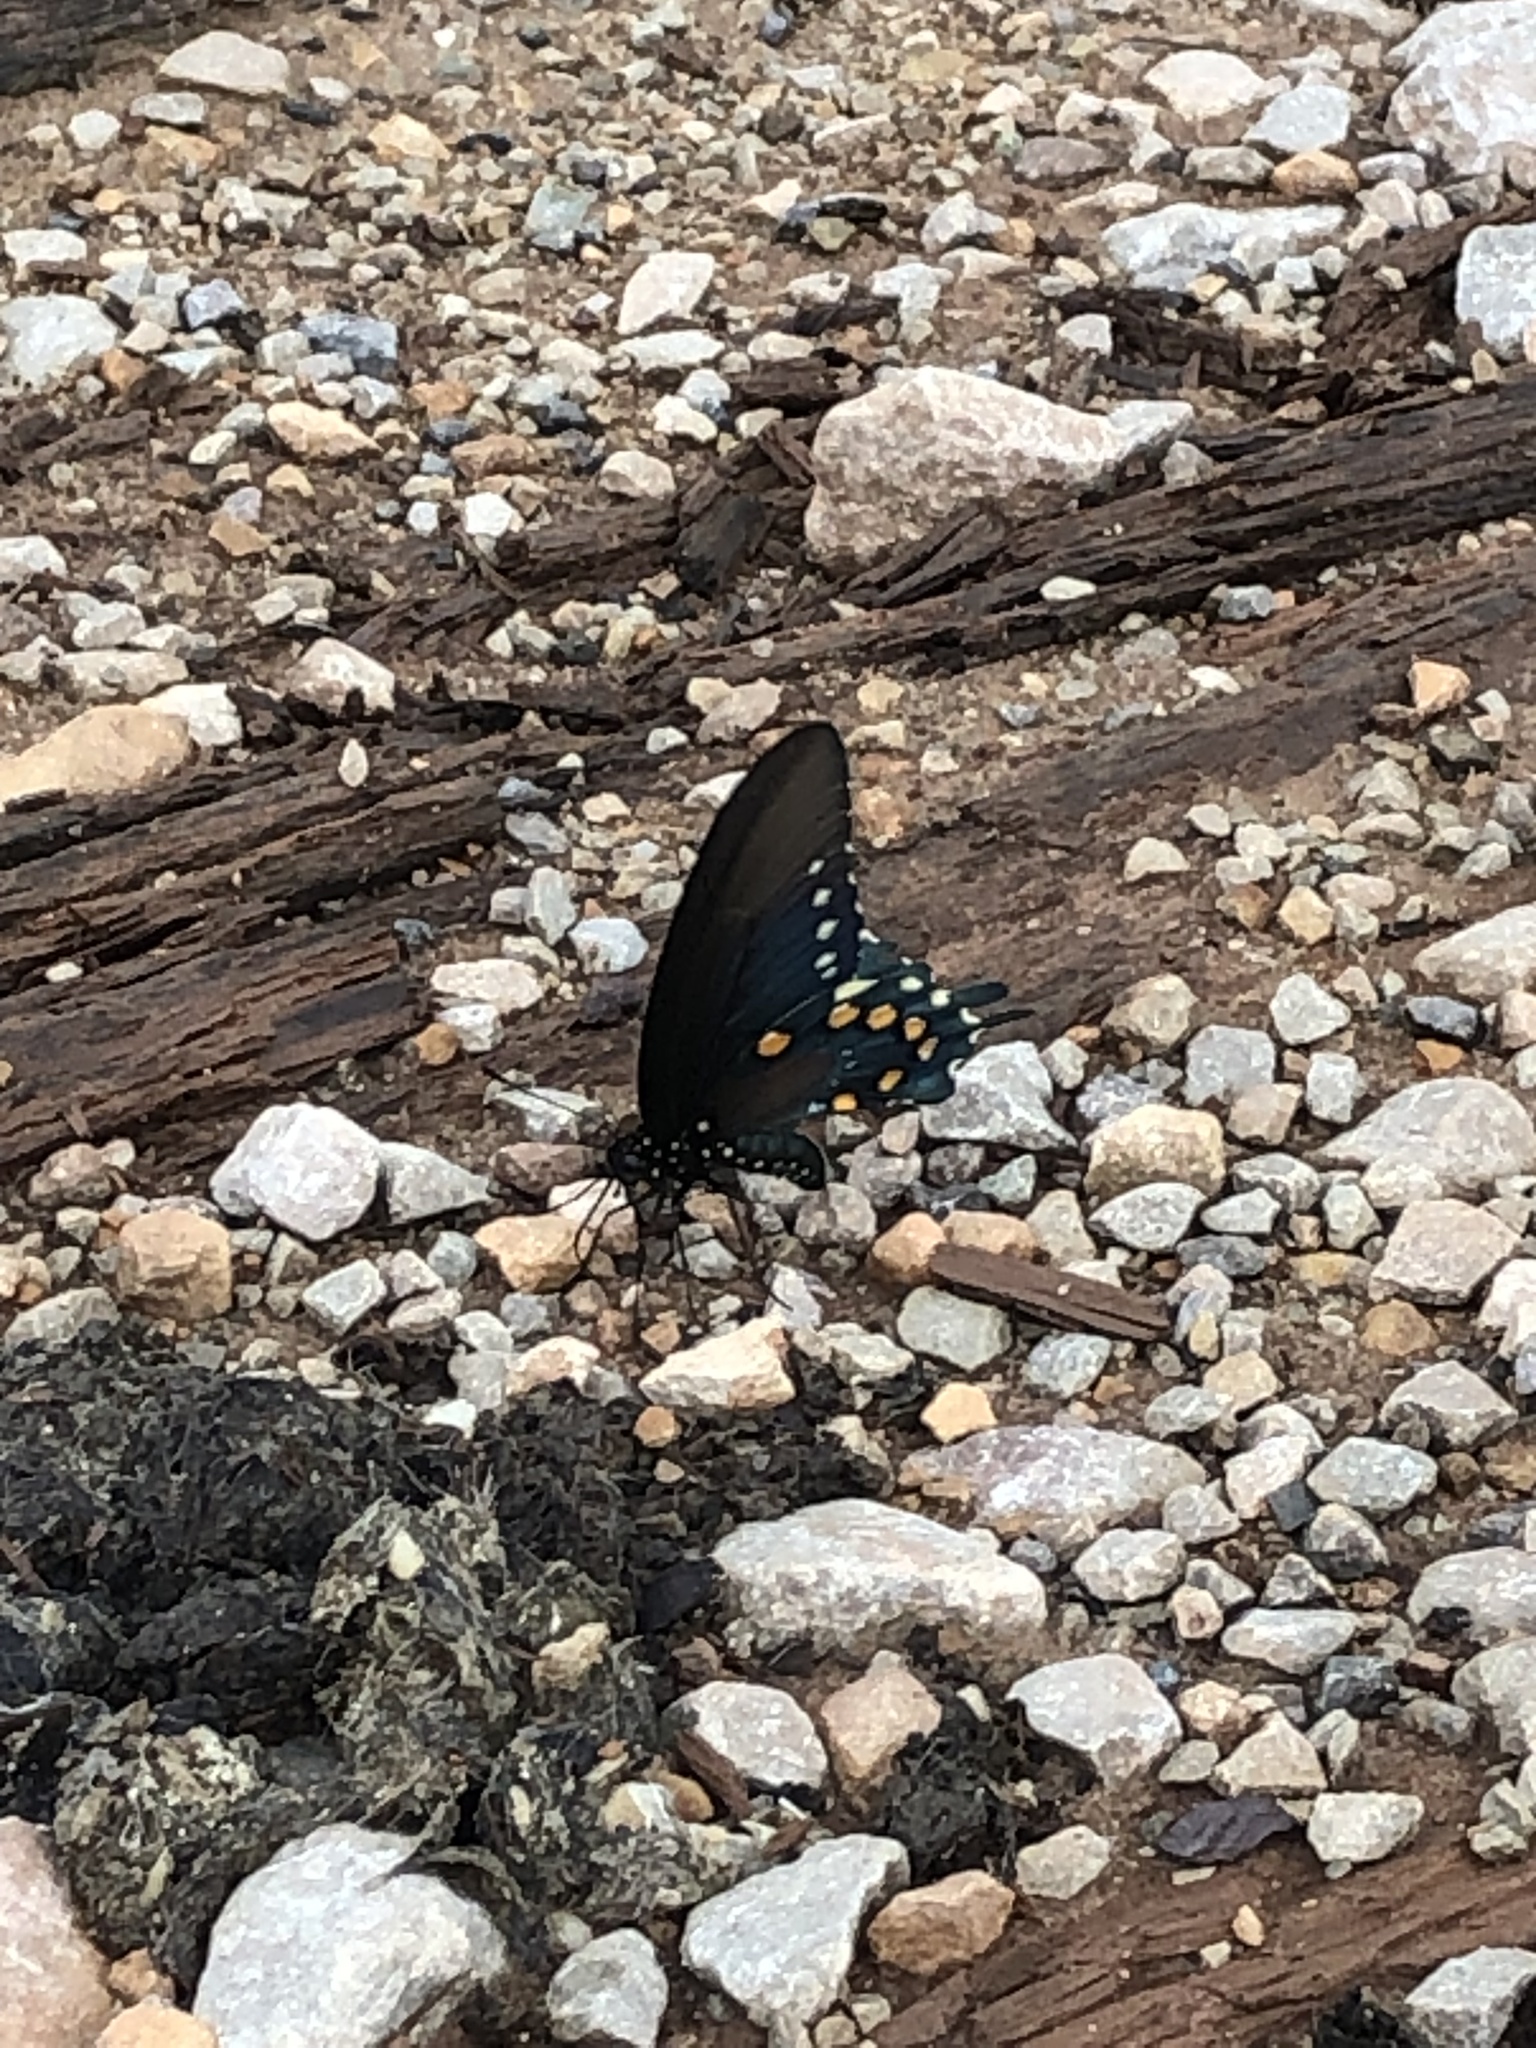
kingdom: Animalia
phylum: Arthropoda
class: Insecta
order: Lepidoptera
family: Papilionidae
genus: Battus
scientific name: Battus philenor
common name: Pipevine swallowtail
